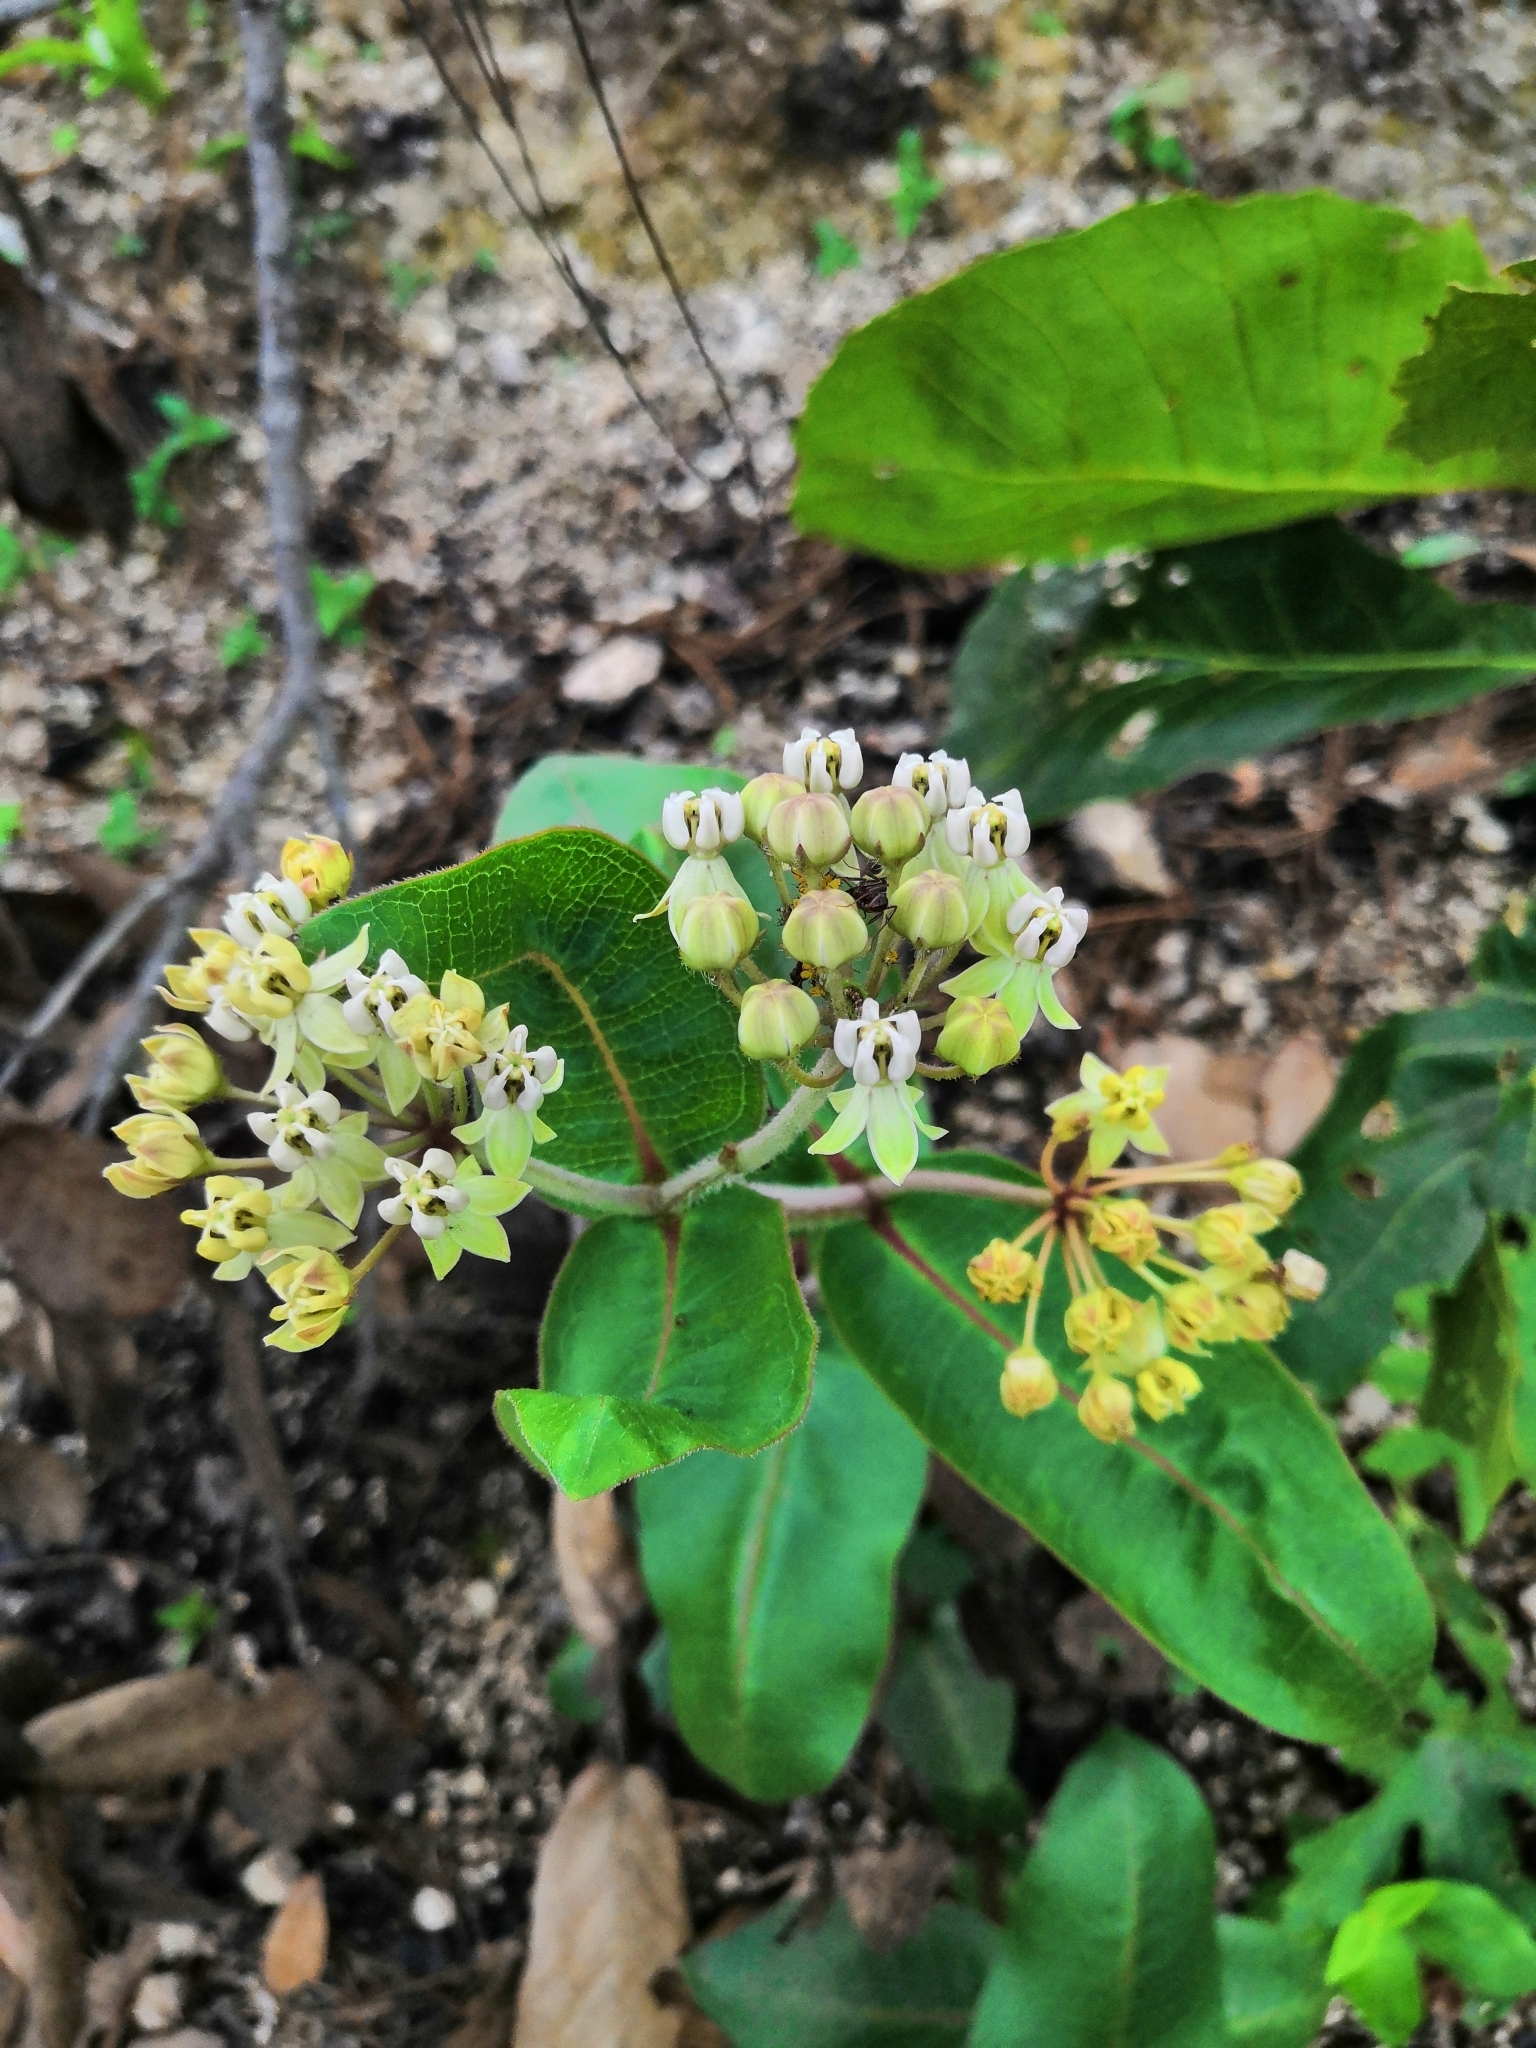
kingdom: Plantae
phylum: Tracheophyta
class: Magnoliopsida
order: Gentianales
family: Apocynaceae
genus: Asclepias
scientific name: Asclepias jaliscana
